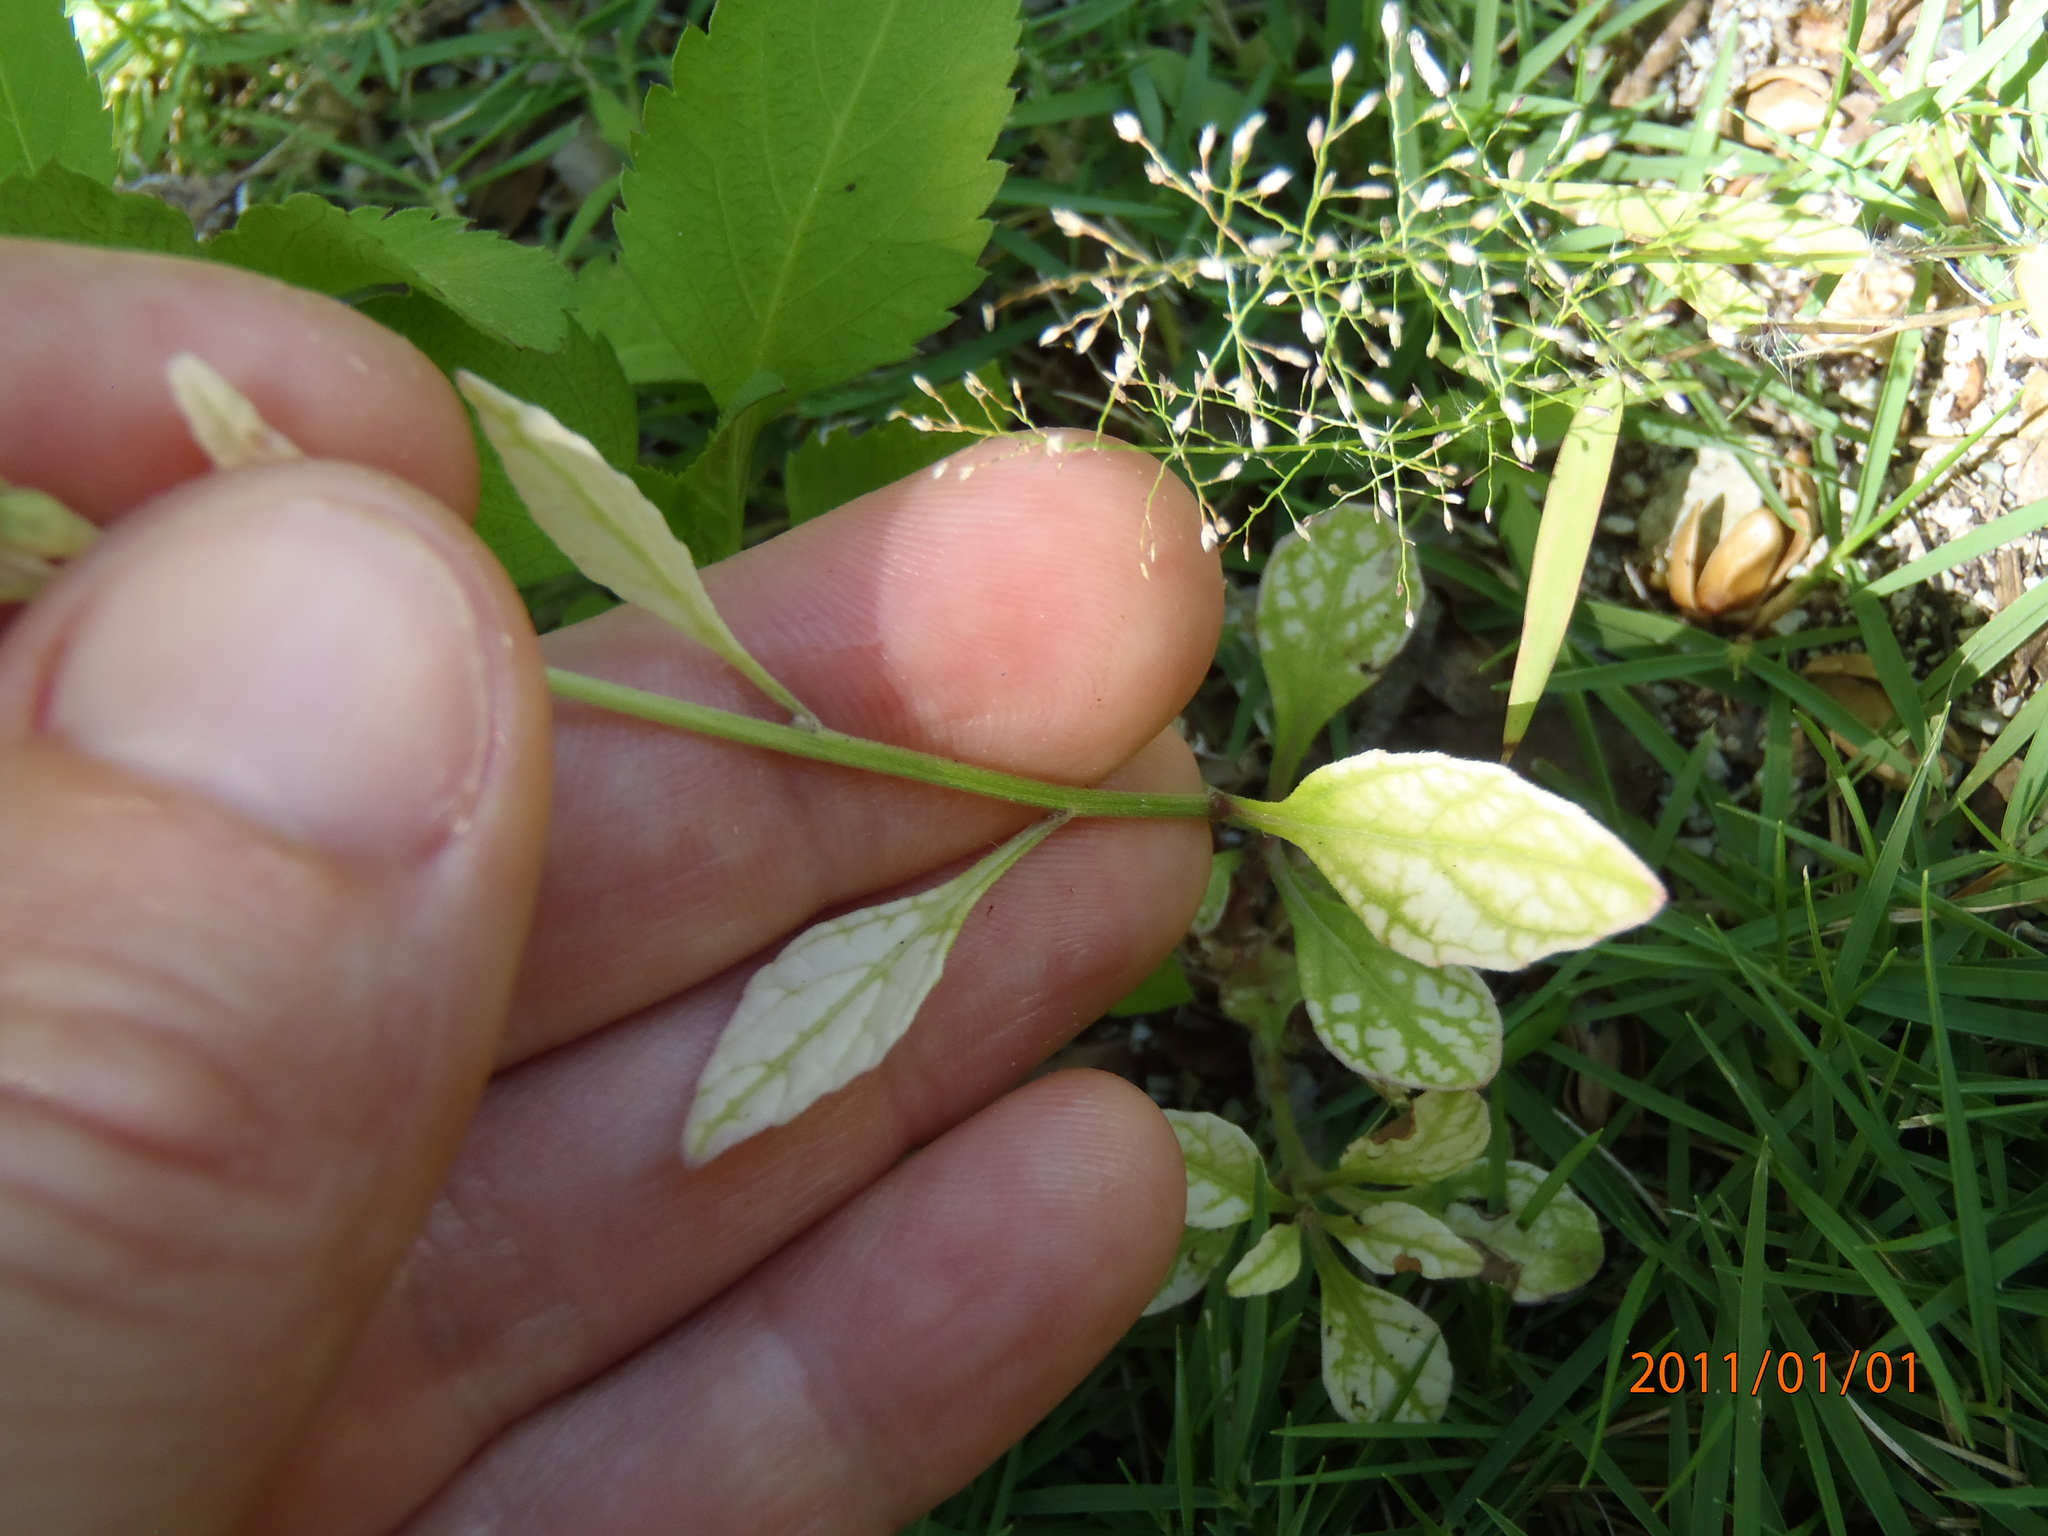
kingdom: Plantae
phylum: Tracheophyta
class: Magnoliopsida
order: Asterales
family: Asteraceae
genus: Cyanthillium
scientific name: Cyanthillium cinereum
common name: Little ironweed
